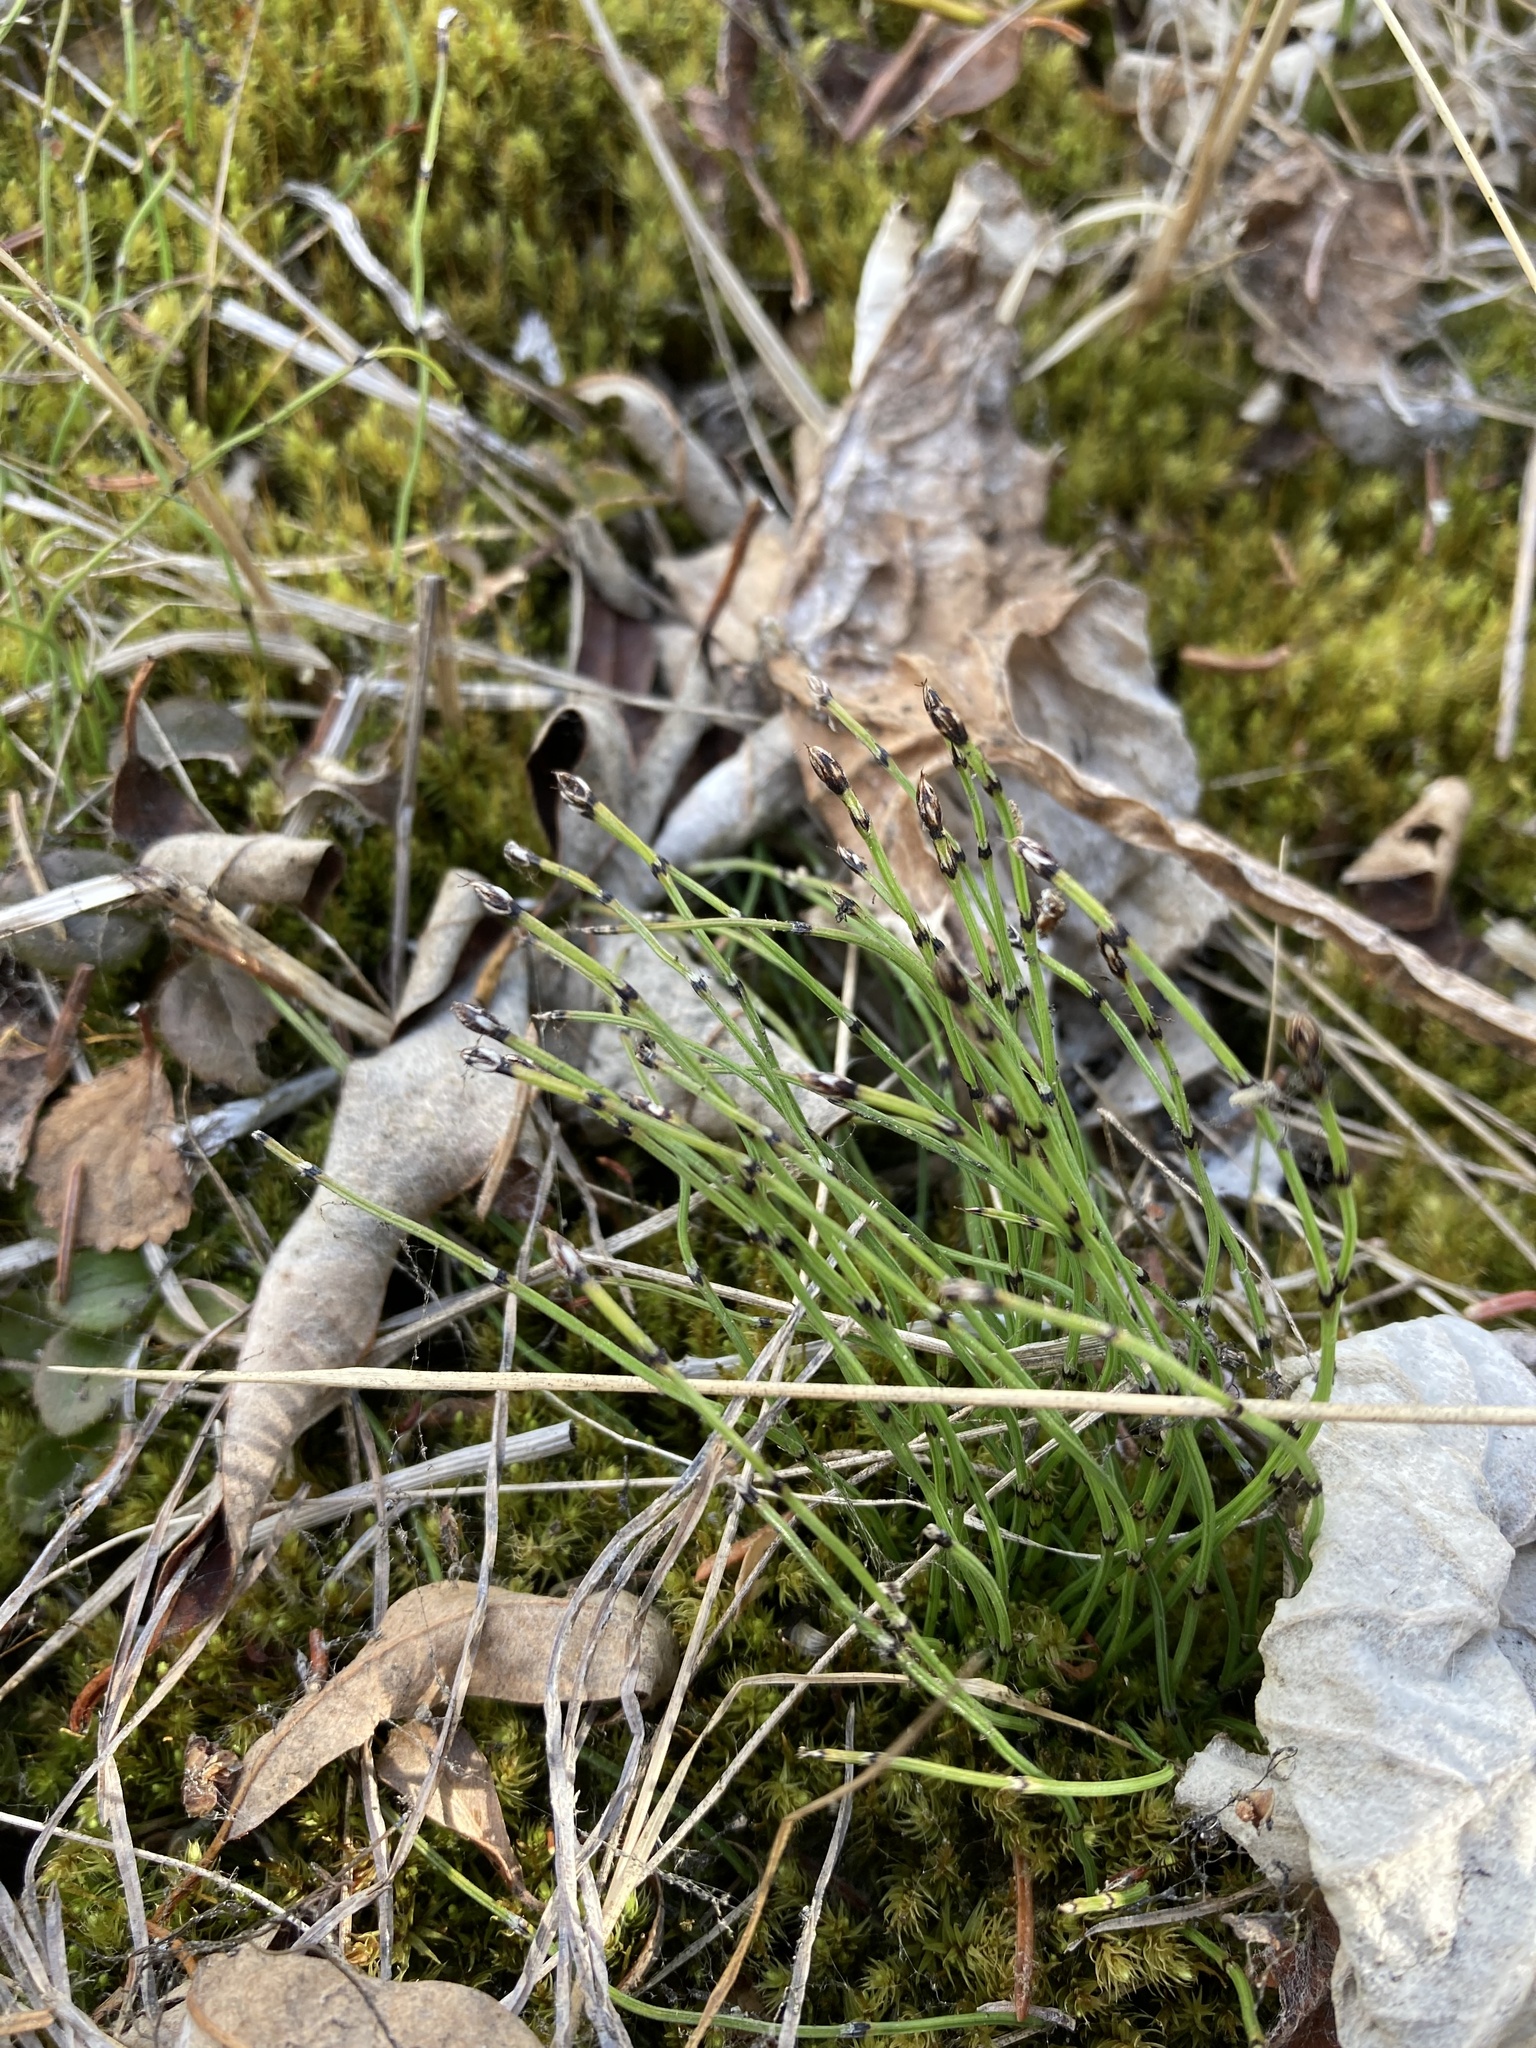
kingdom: Plantae
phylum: Tracheophyta
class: Polypodiopsida
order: Equisetales
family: Equisetaceae
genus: Equisetum
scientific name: Equisetum scirpoides
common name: Delicate horsetail
